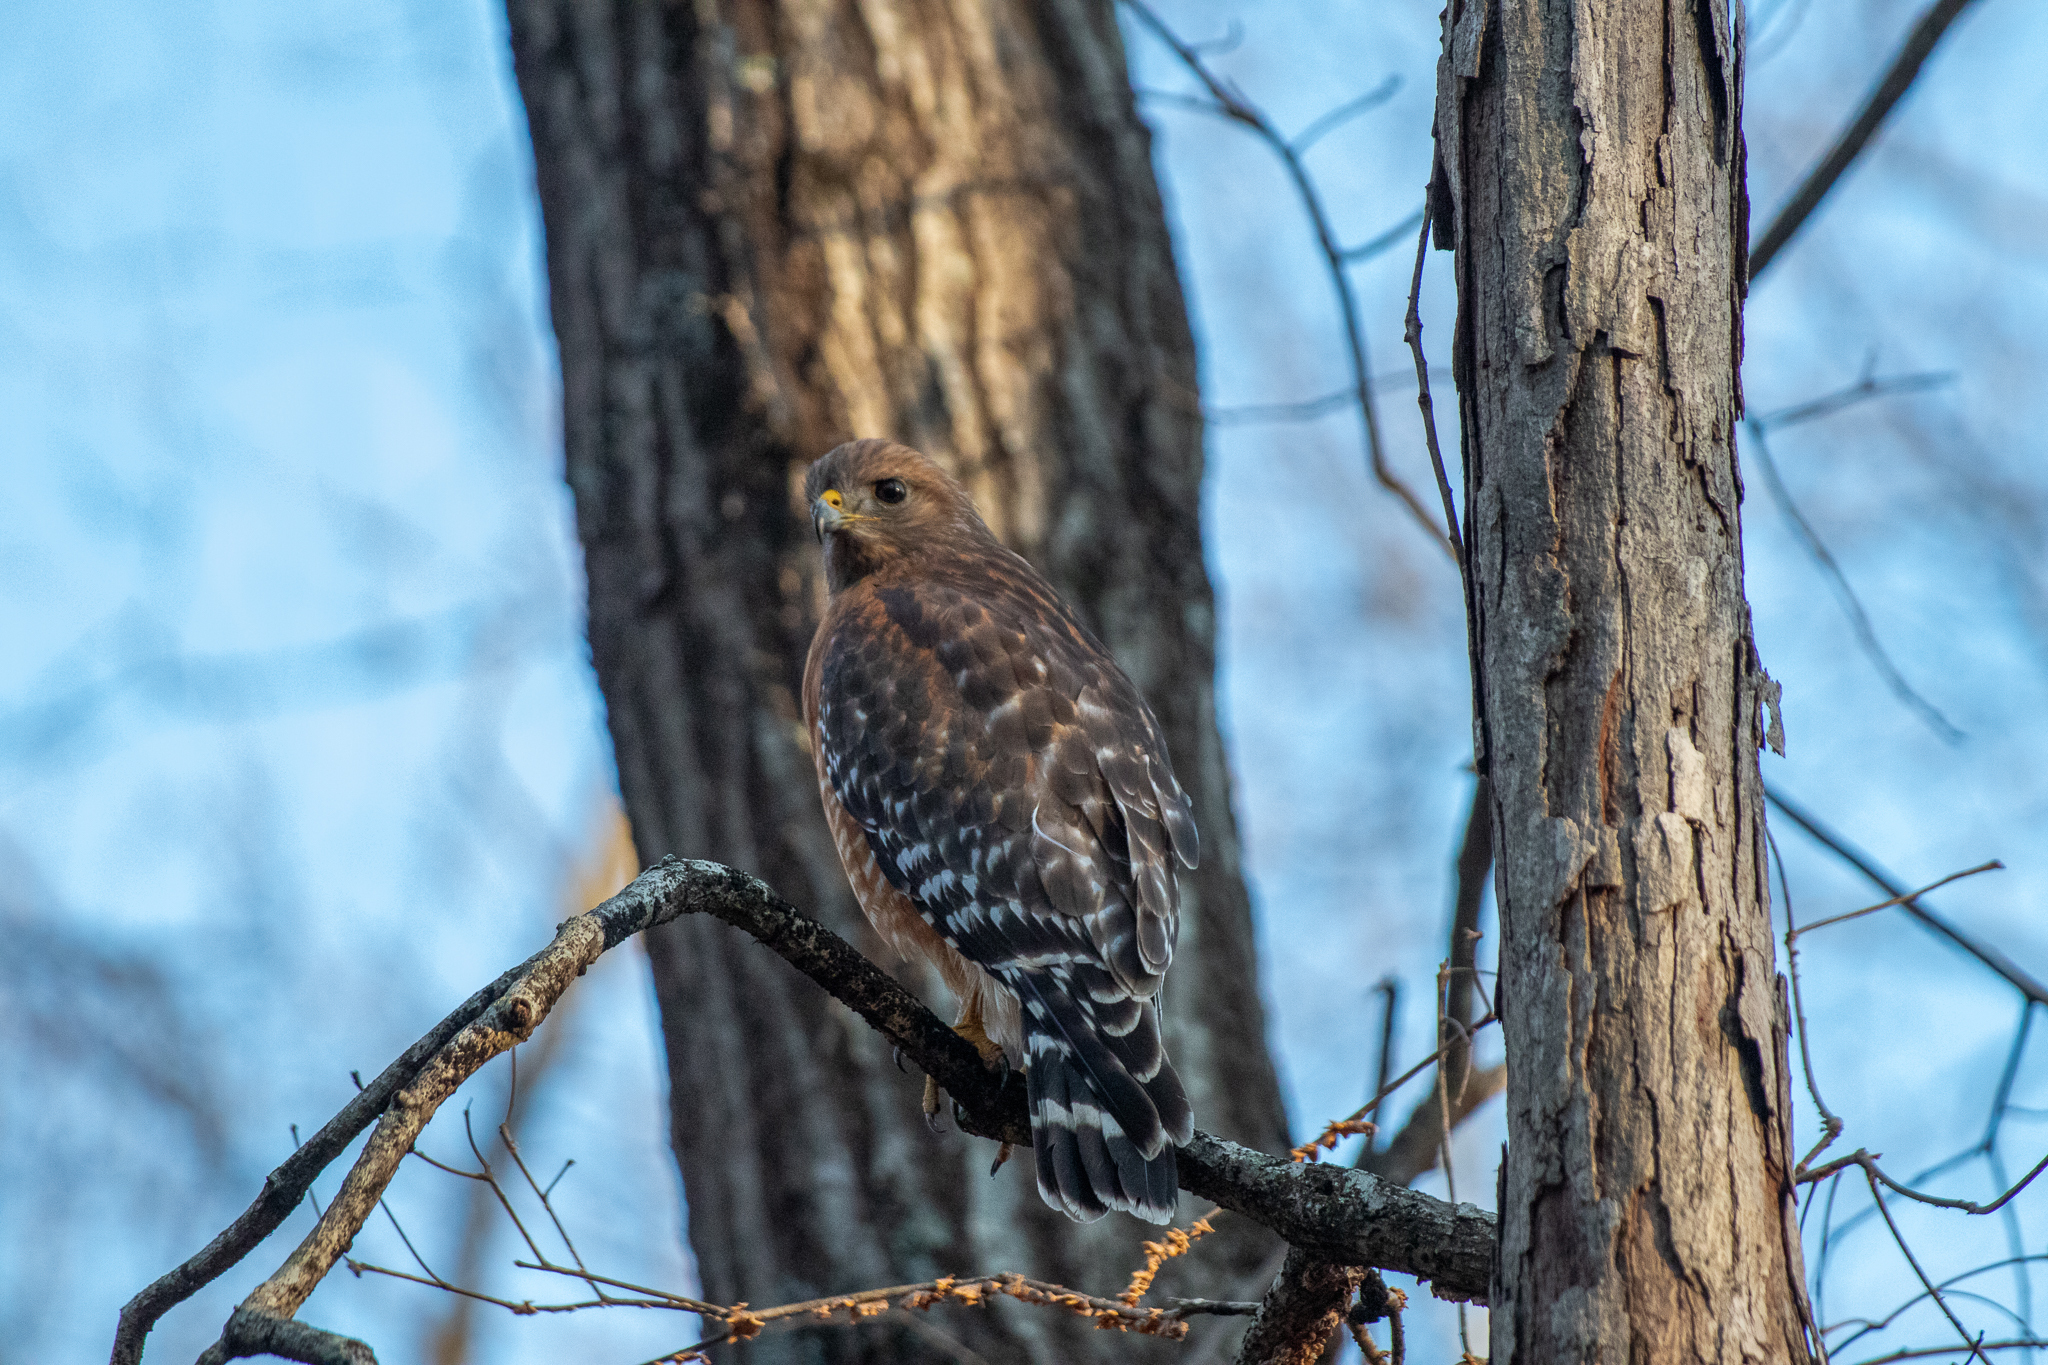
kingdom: Animalia
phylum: Chordata
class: Aves
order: Accipitriformes
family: Accipitridae
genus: Buteo
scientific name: Buteo lineatus
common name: Red-shouldered hawk
